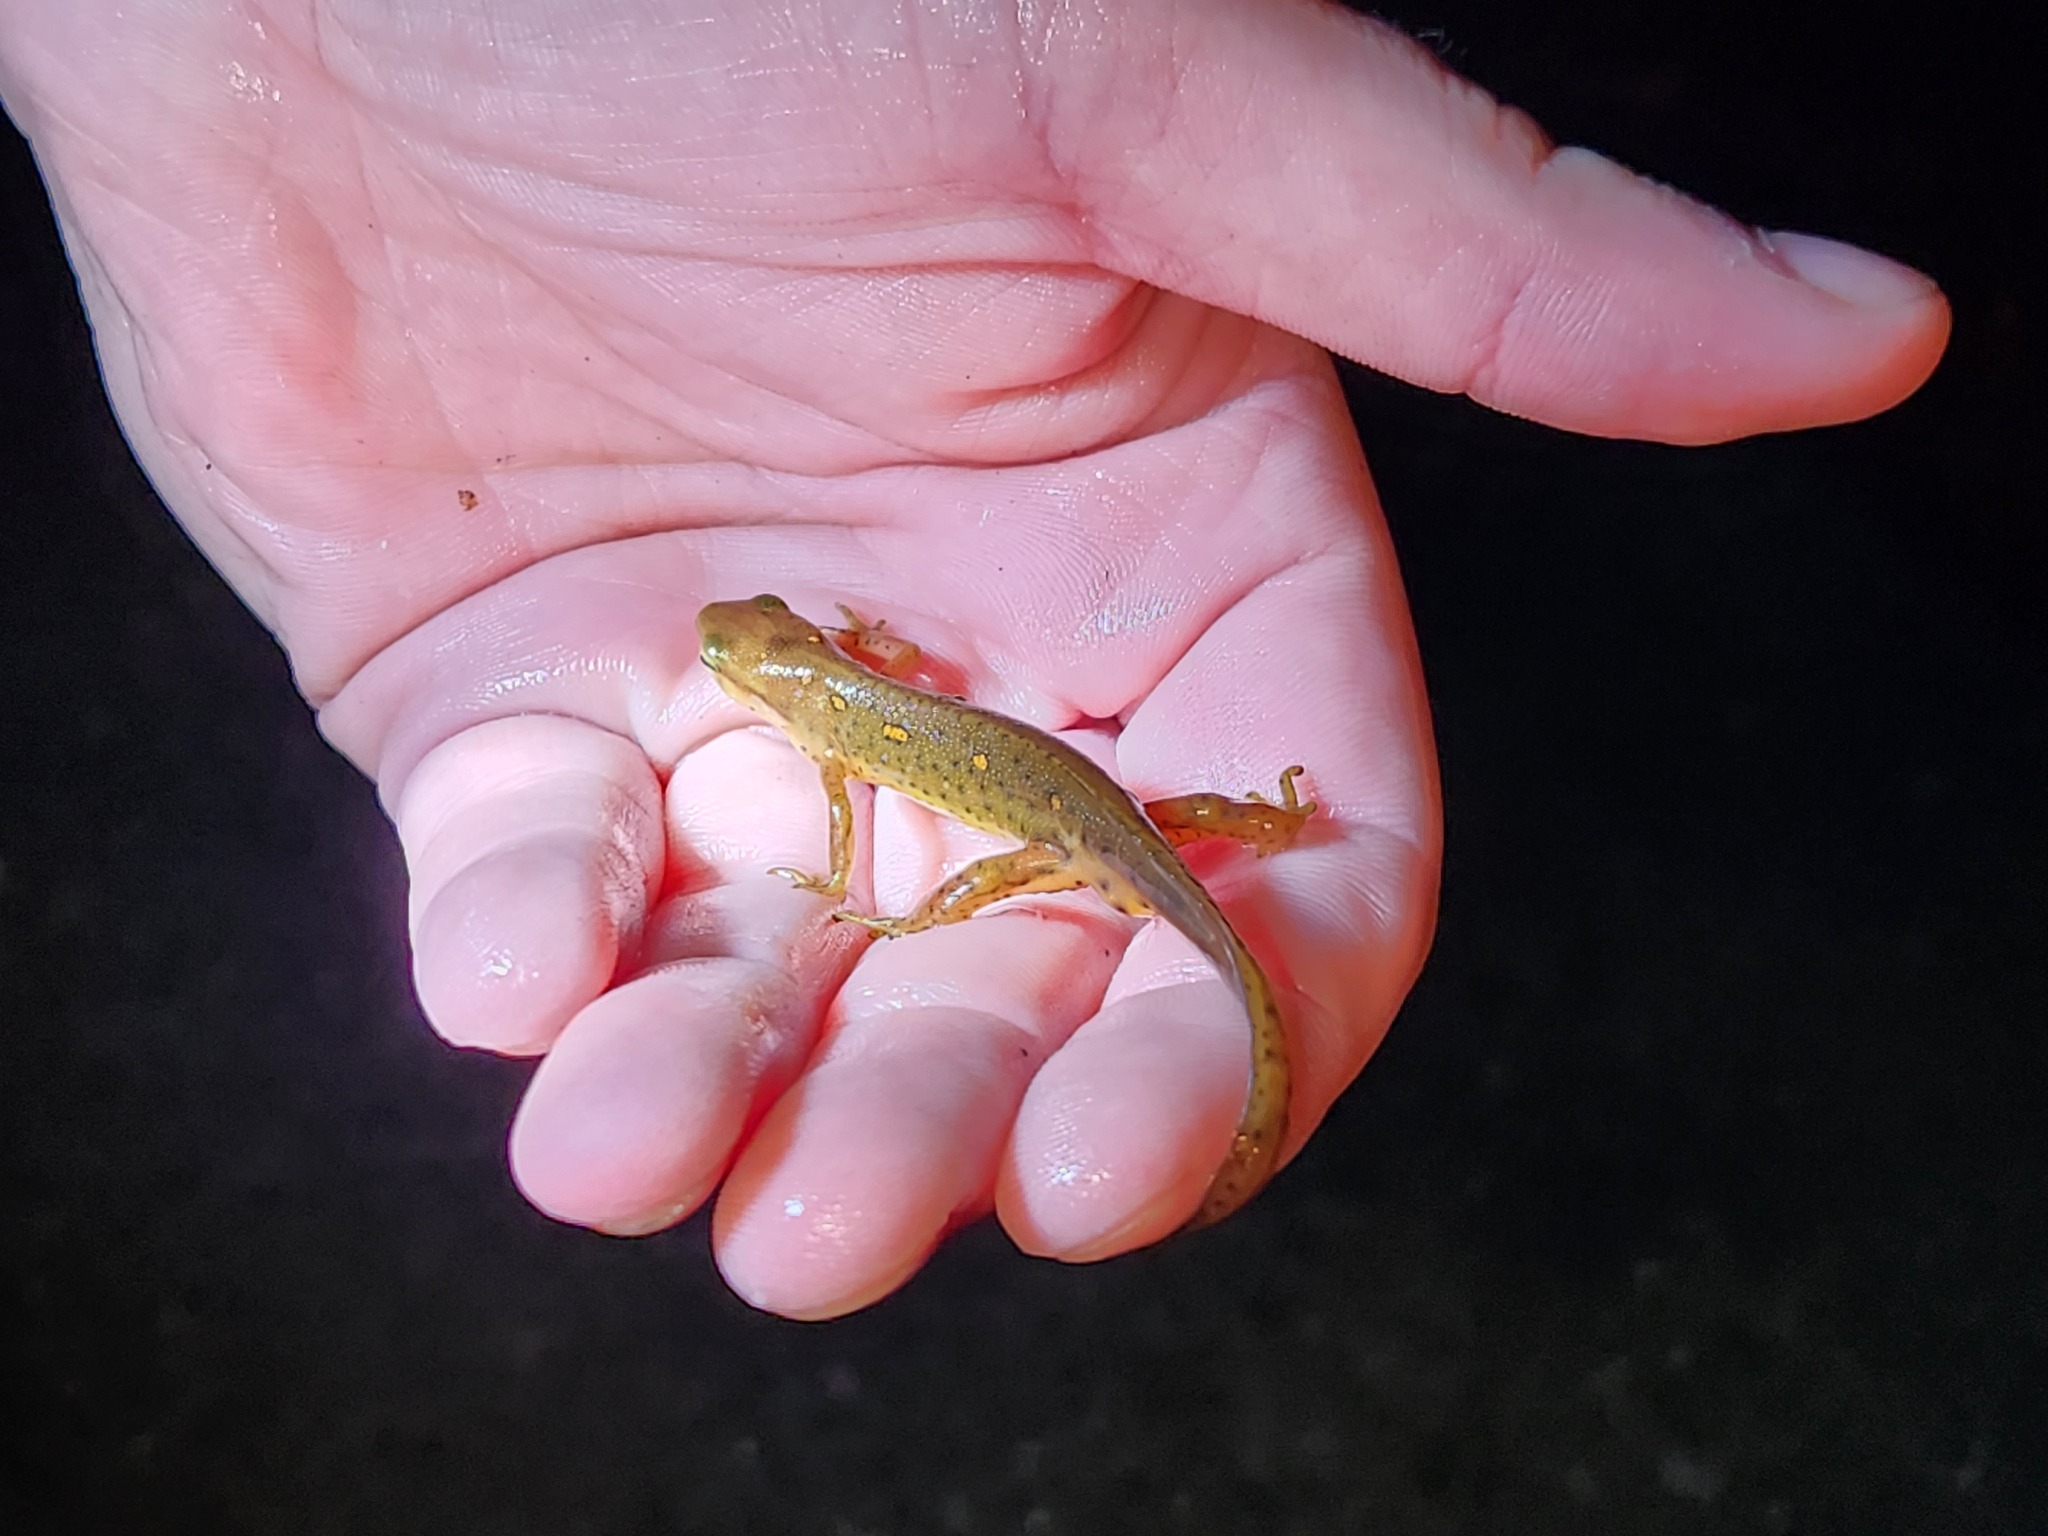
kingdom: Animalia
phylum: Chordata
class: Amphibia
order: Caudata
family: Salamandridae
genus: Notophthalmus
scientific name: Notophthalmus viridescens
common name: Eastern newt
